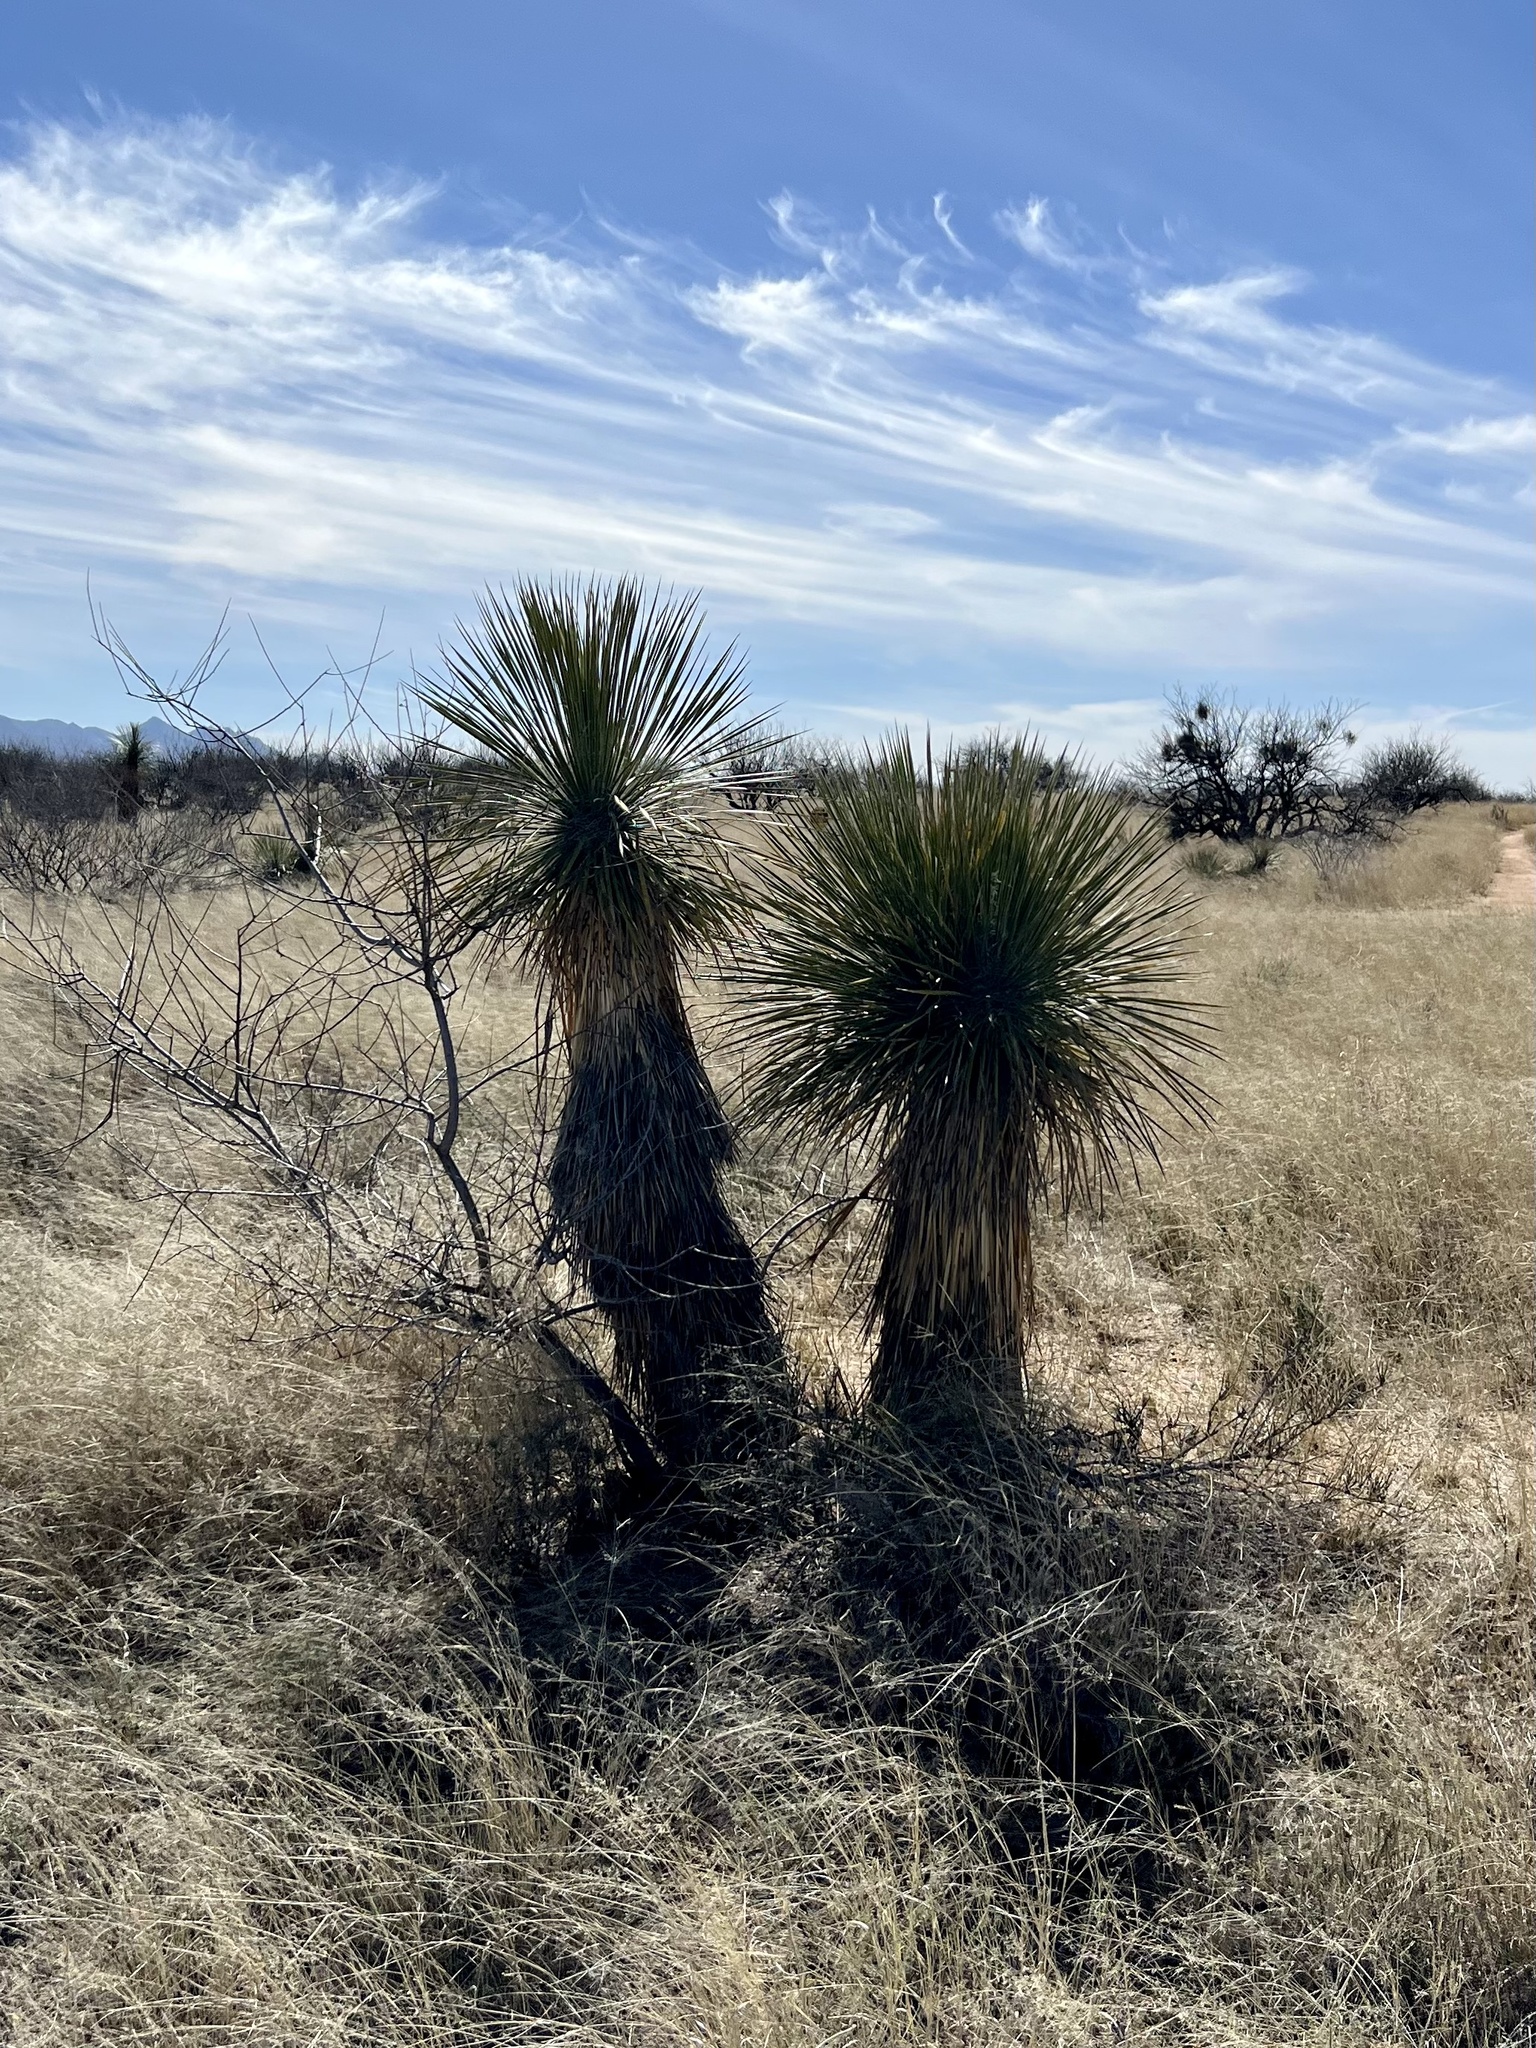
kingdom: Plantae
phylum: Tracheophyta
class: Liliopsida
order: Asparagales
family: Asparagaceae
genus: Yucca
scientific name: Yucca elata
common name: Palmella
